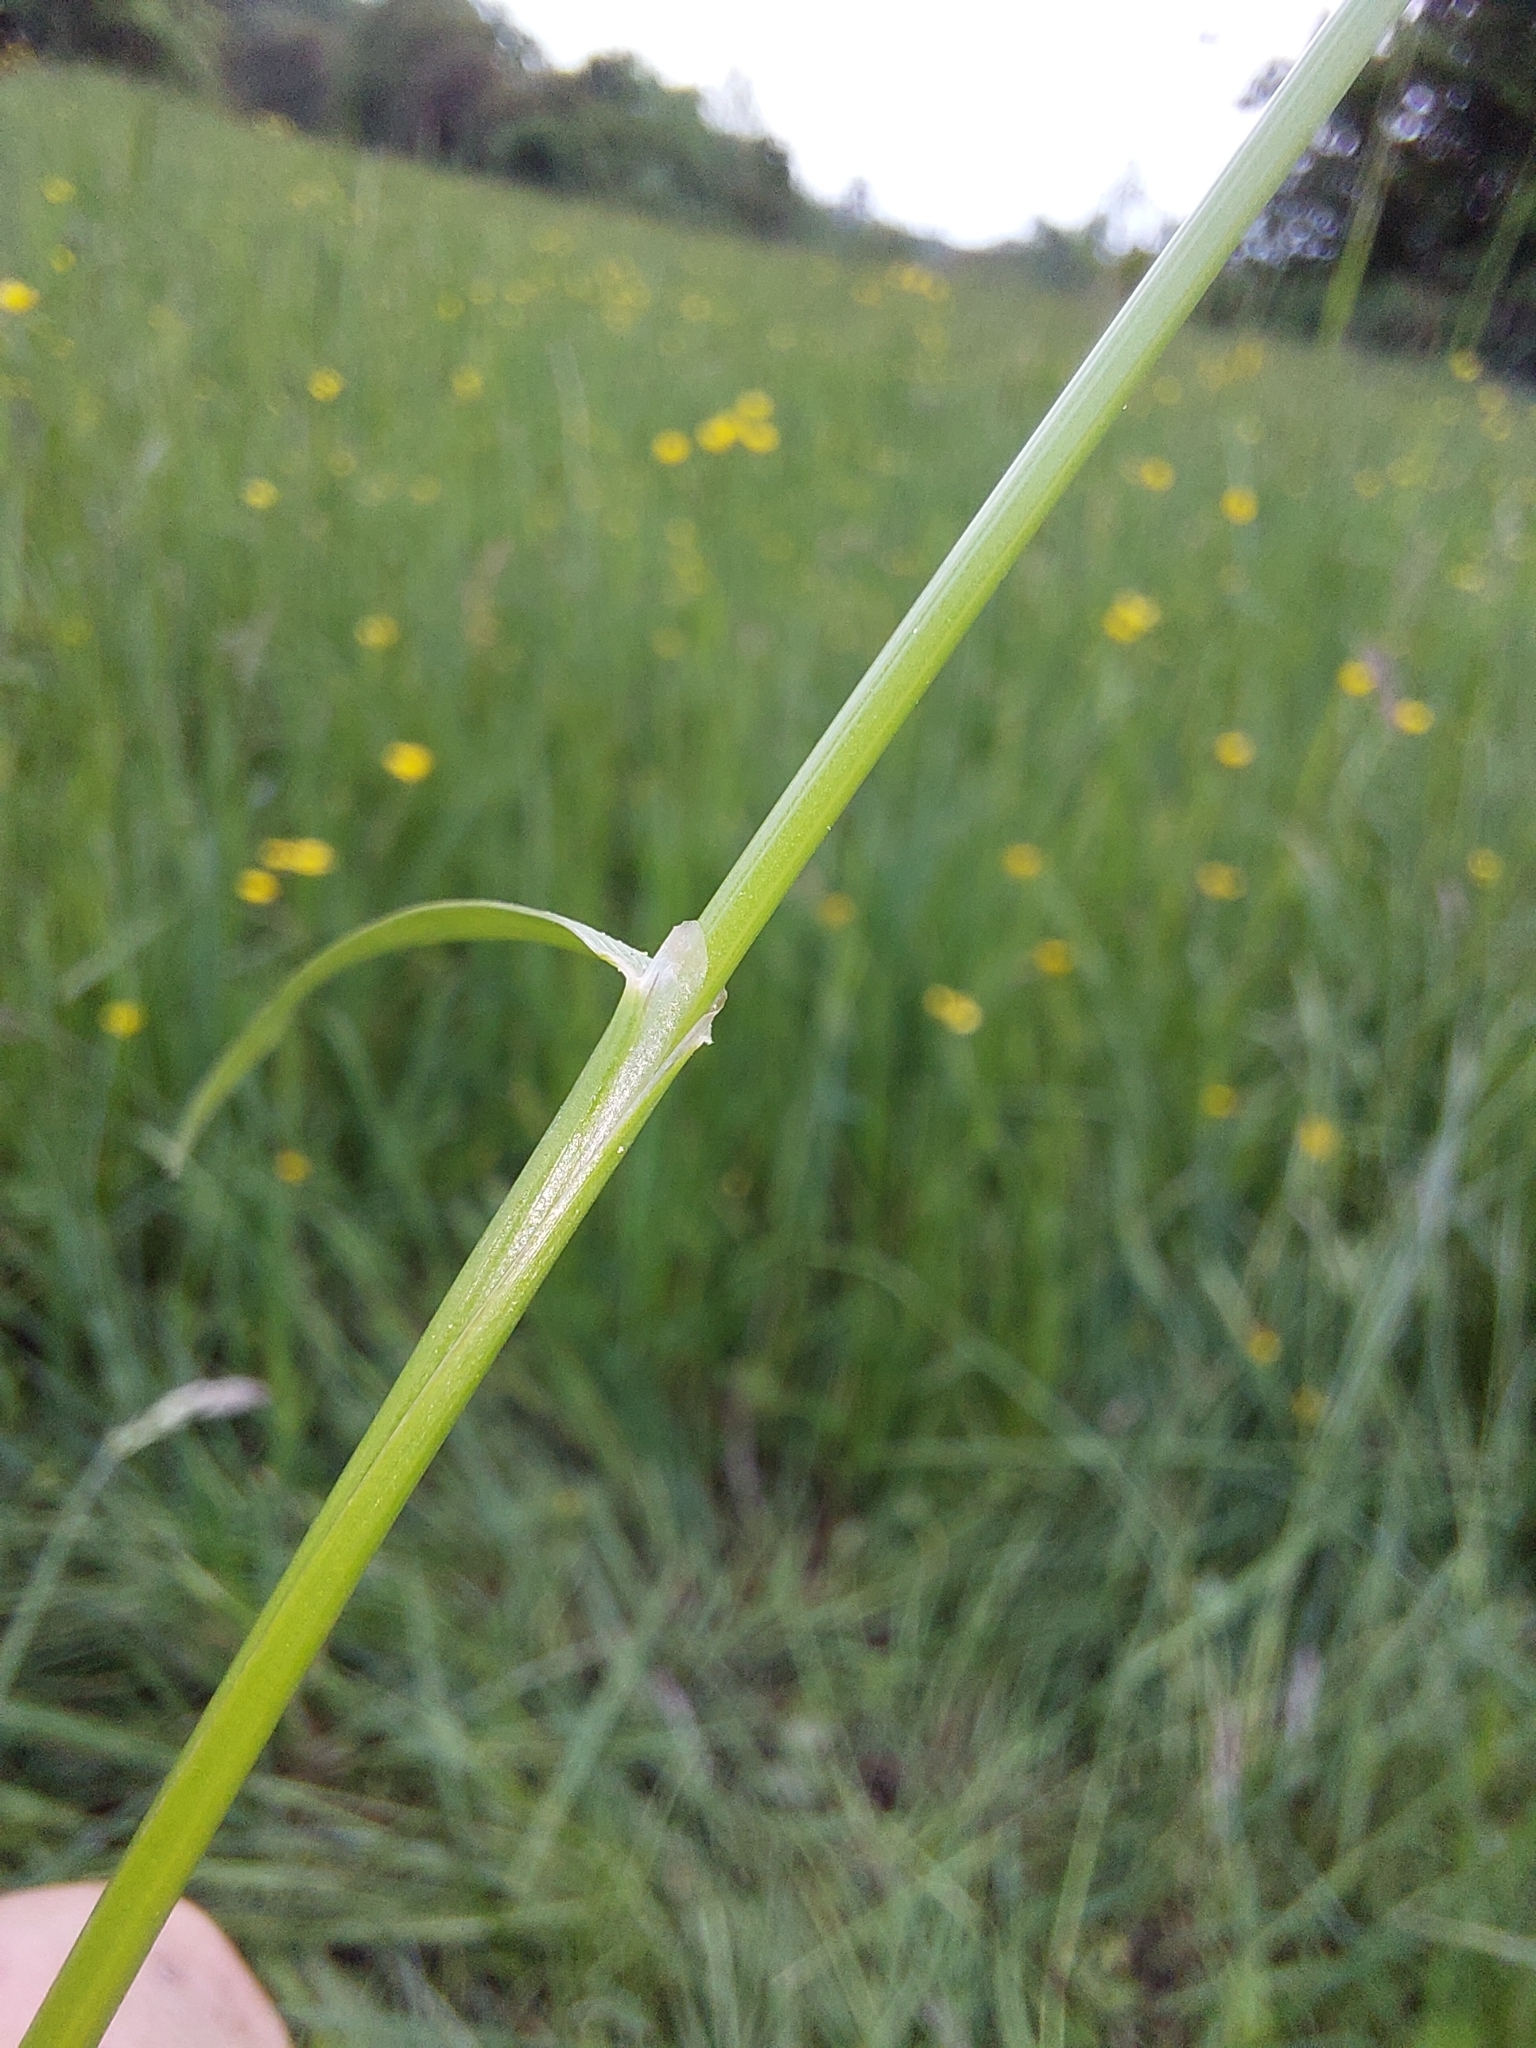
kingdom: Plantae
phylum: Tracheophyta
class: Liliopsida
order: Poales
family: Poaceae
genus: Cynosurus
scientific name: Cynosurus cristatus
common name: Crested dog's-tail
